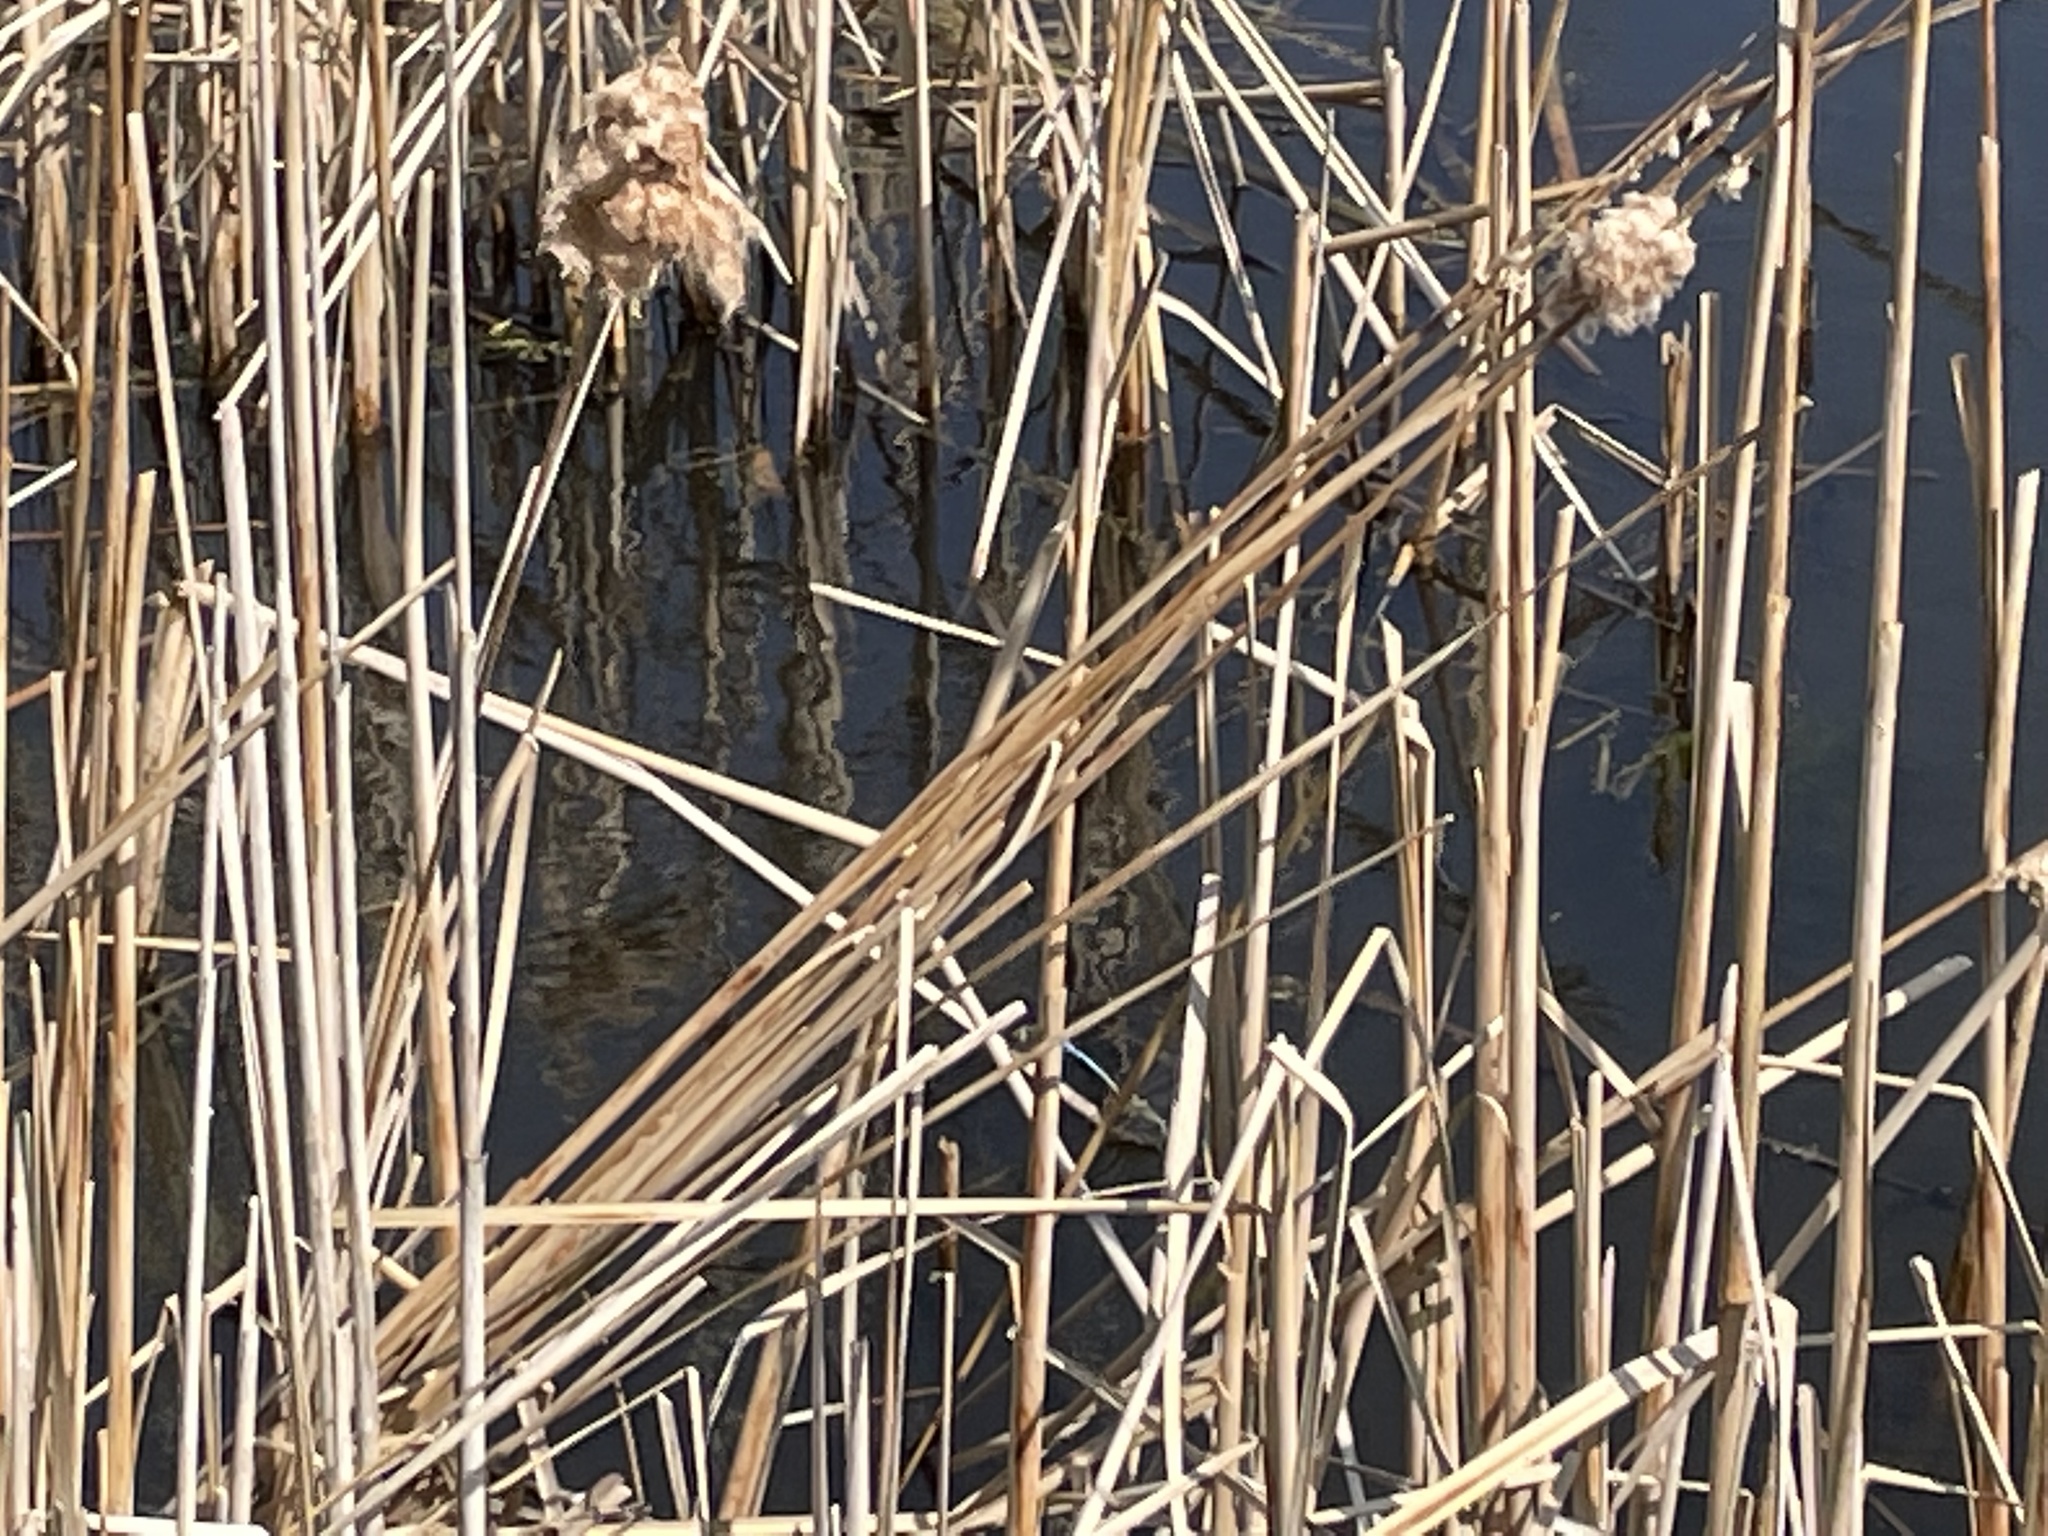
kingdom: Animalia
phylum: Arthropoda
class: Insecta
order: Odonata
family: Aeshnidae
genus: Anax
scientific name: Anax junius
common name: Common green darner
